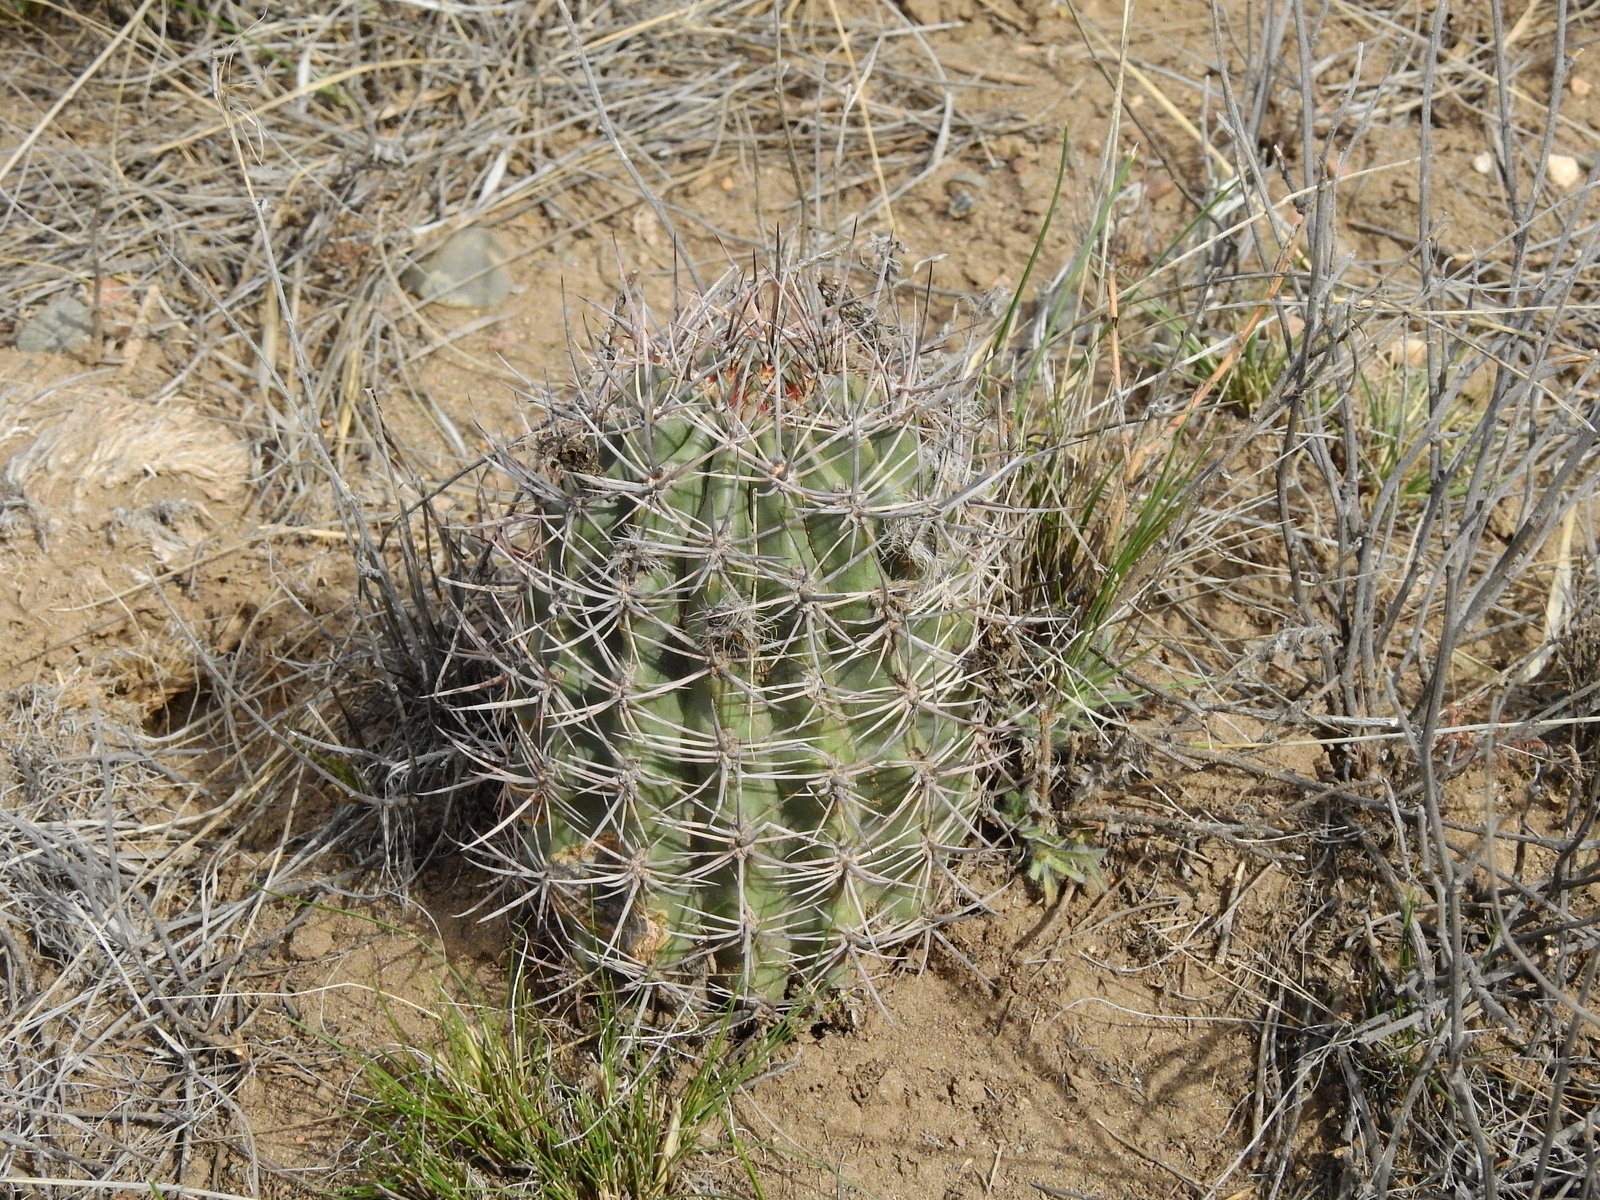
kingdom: Plantae
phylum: Tracheophyta
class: Magnoliopsida
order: Caryophyllales
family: Cactaceae
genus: Eriosyce
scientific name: Eriosyce strausiana
